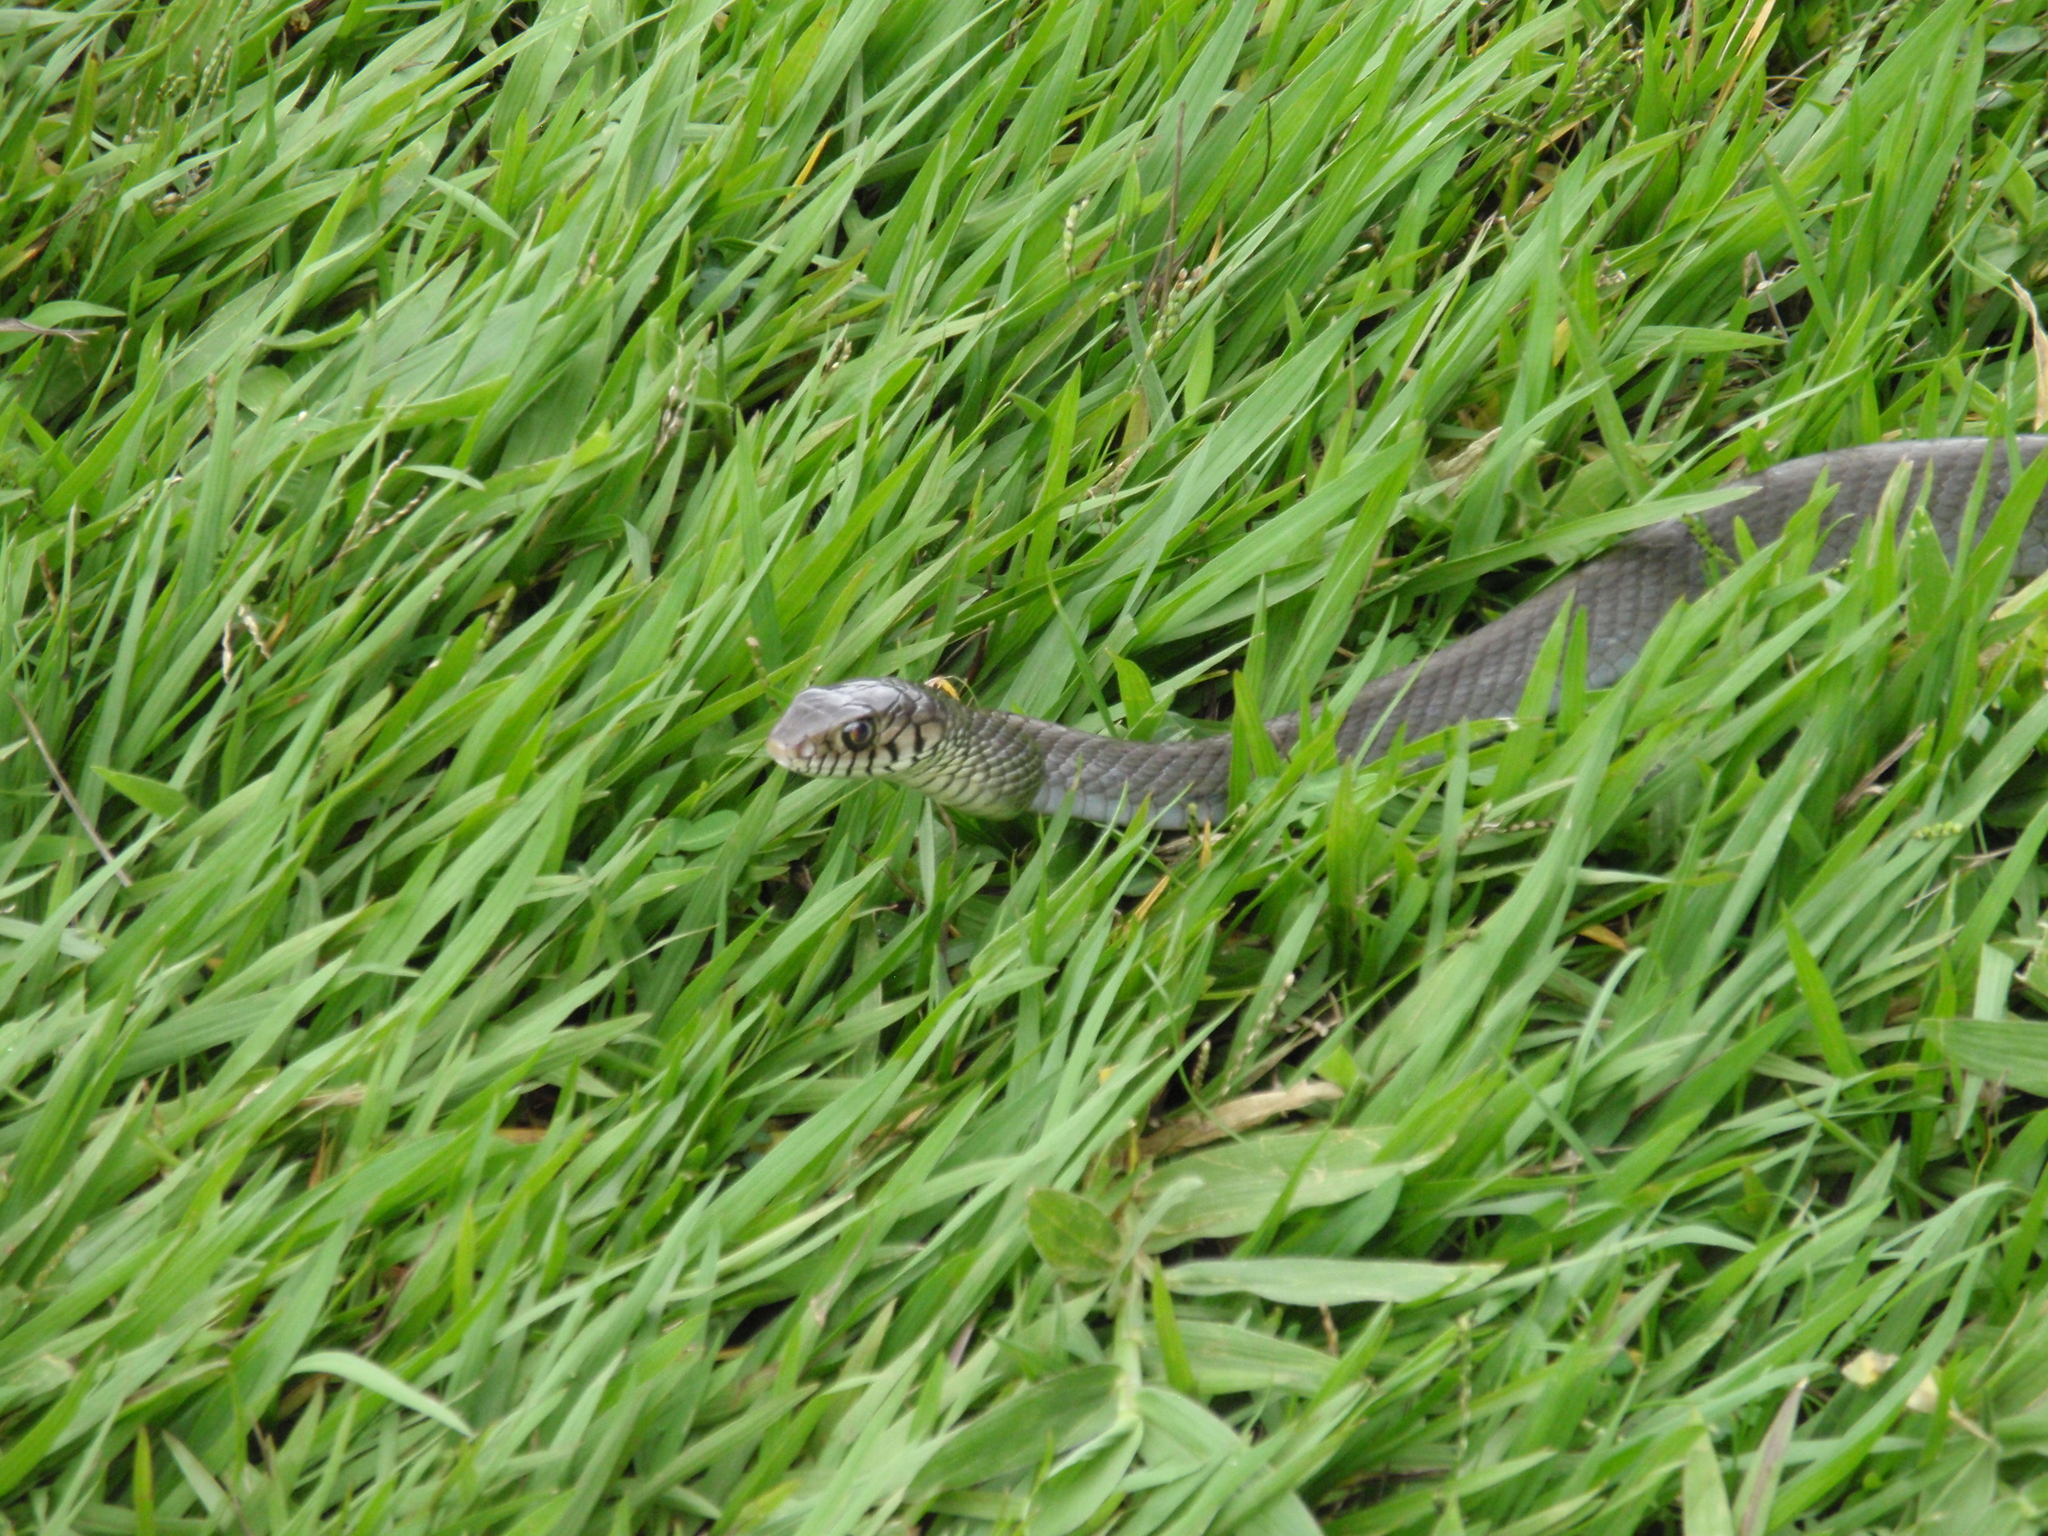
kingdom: Animalia
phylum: Chordata
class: Squamata
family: Colubridae
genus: Ptyas
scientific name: Ptyas mucosa
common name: Oriental ratsnake
